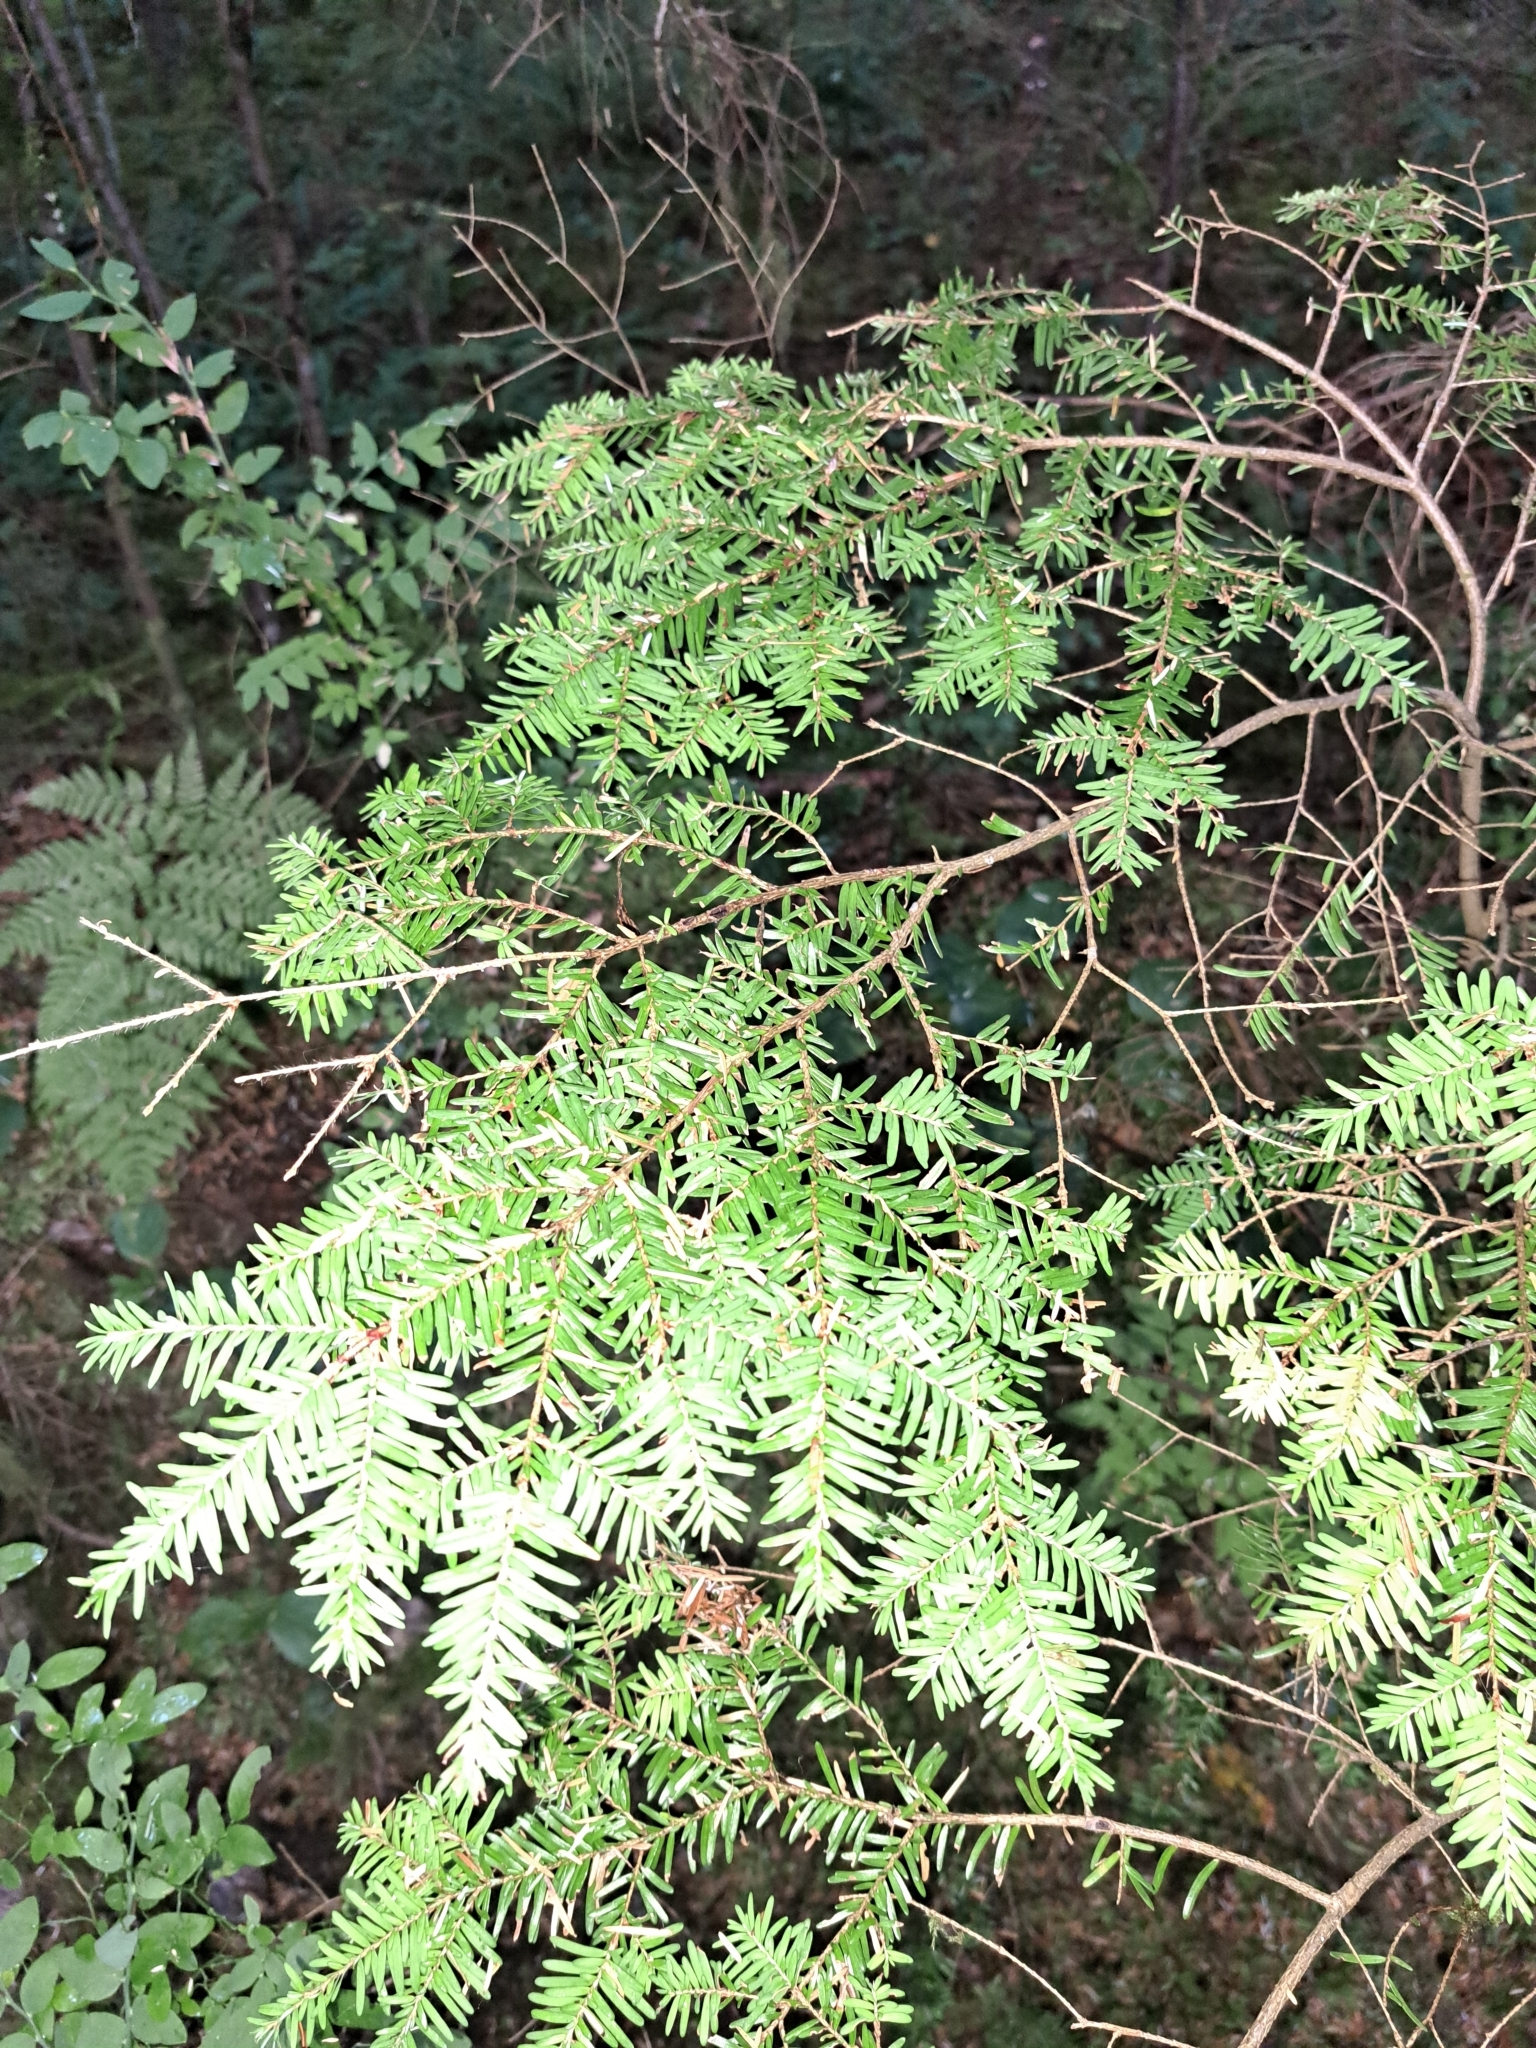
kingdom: Plantae
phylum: Tracheophyta
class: Pinopsida
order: Pinales
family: Pinaceae
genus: Tsuga
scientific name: Tsuga heterophylla
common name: Western hemlock
